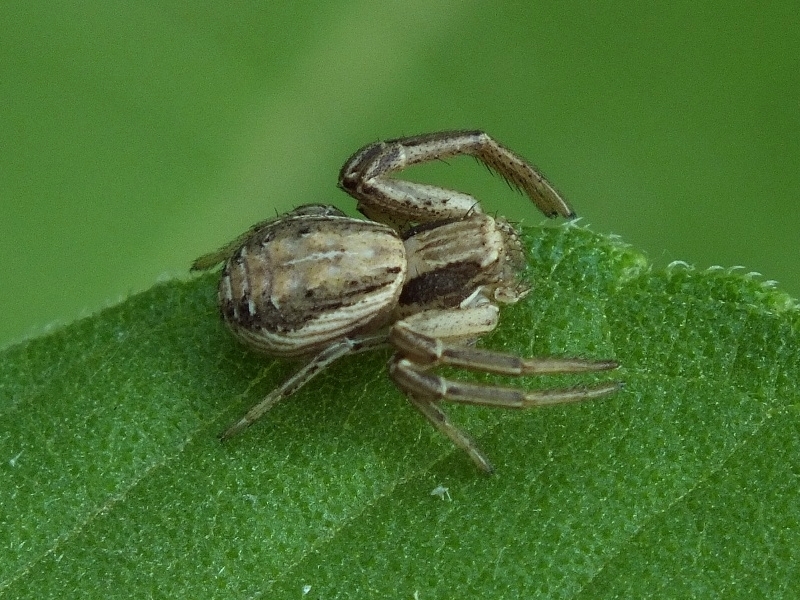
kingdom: Animalia
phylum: Arthropoda
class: Arachnida
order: Araneae
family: Thomisidae
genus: Spiracme
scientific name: Spiracme striatipes
